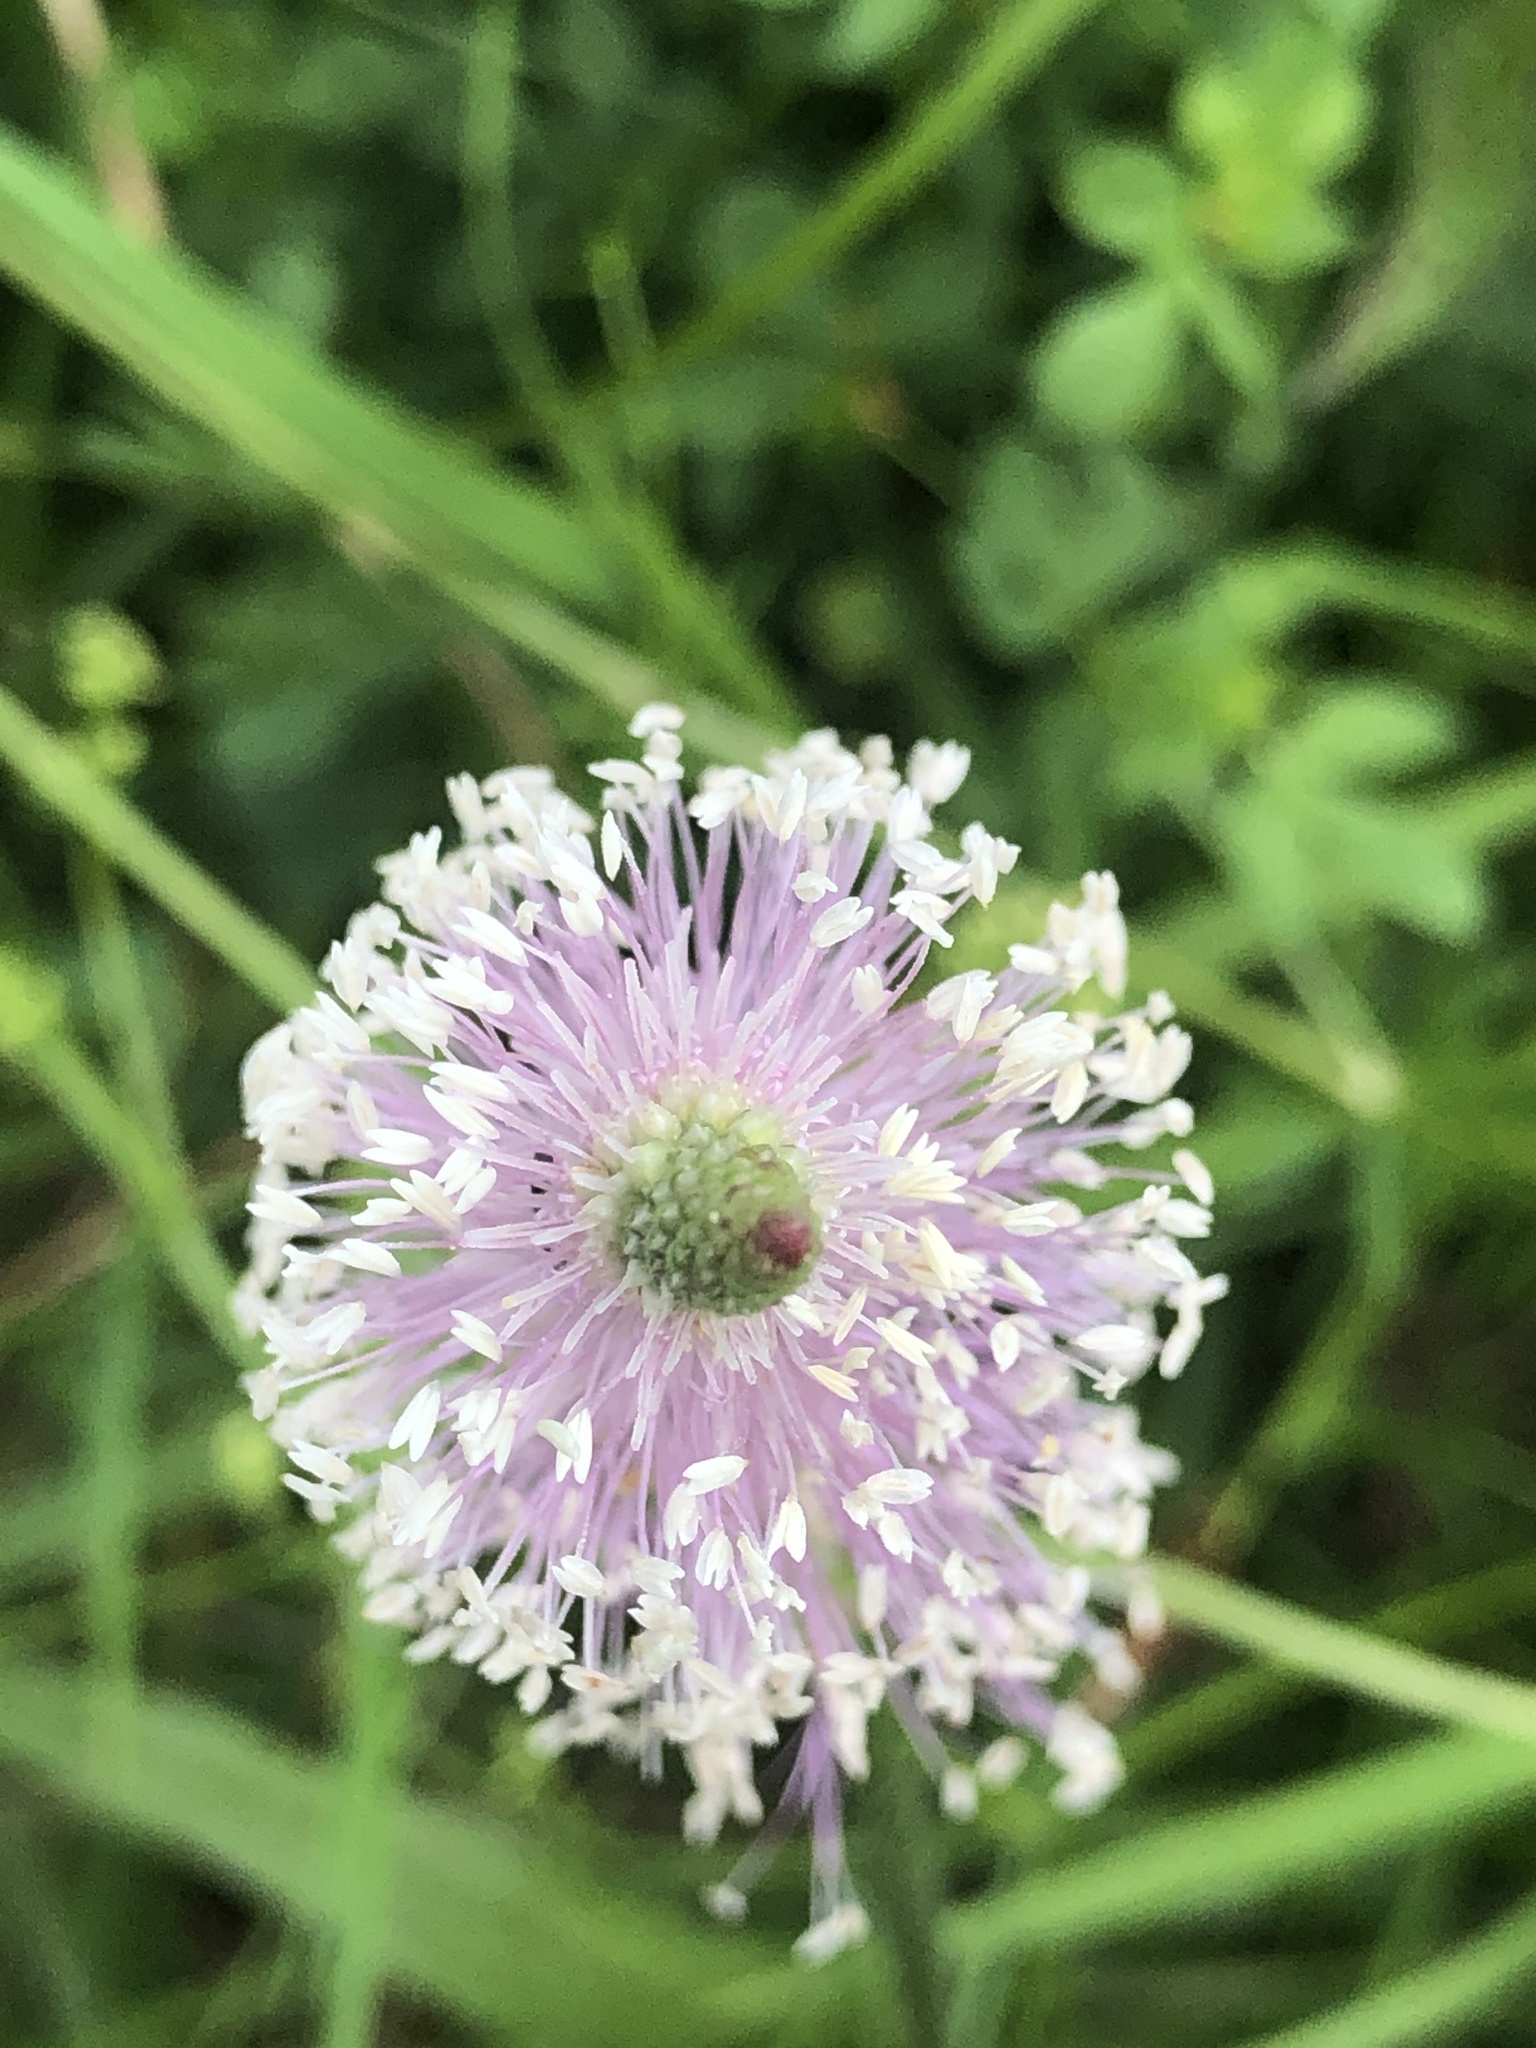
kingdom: Plantae
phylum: Tracheophyta
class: Magnoliopsida
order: Lamiales
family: Plantaginaceae
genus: Plantago
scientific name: Plantago media
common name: Hoary plantain
